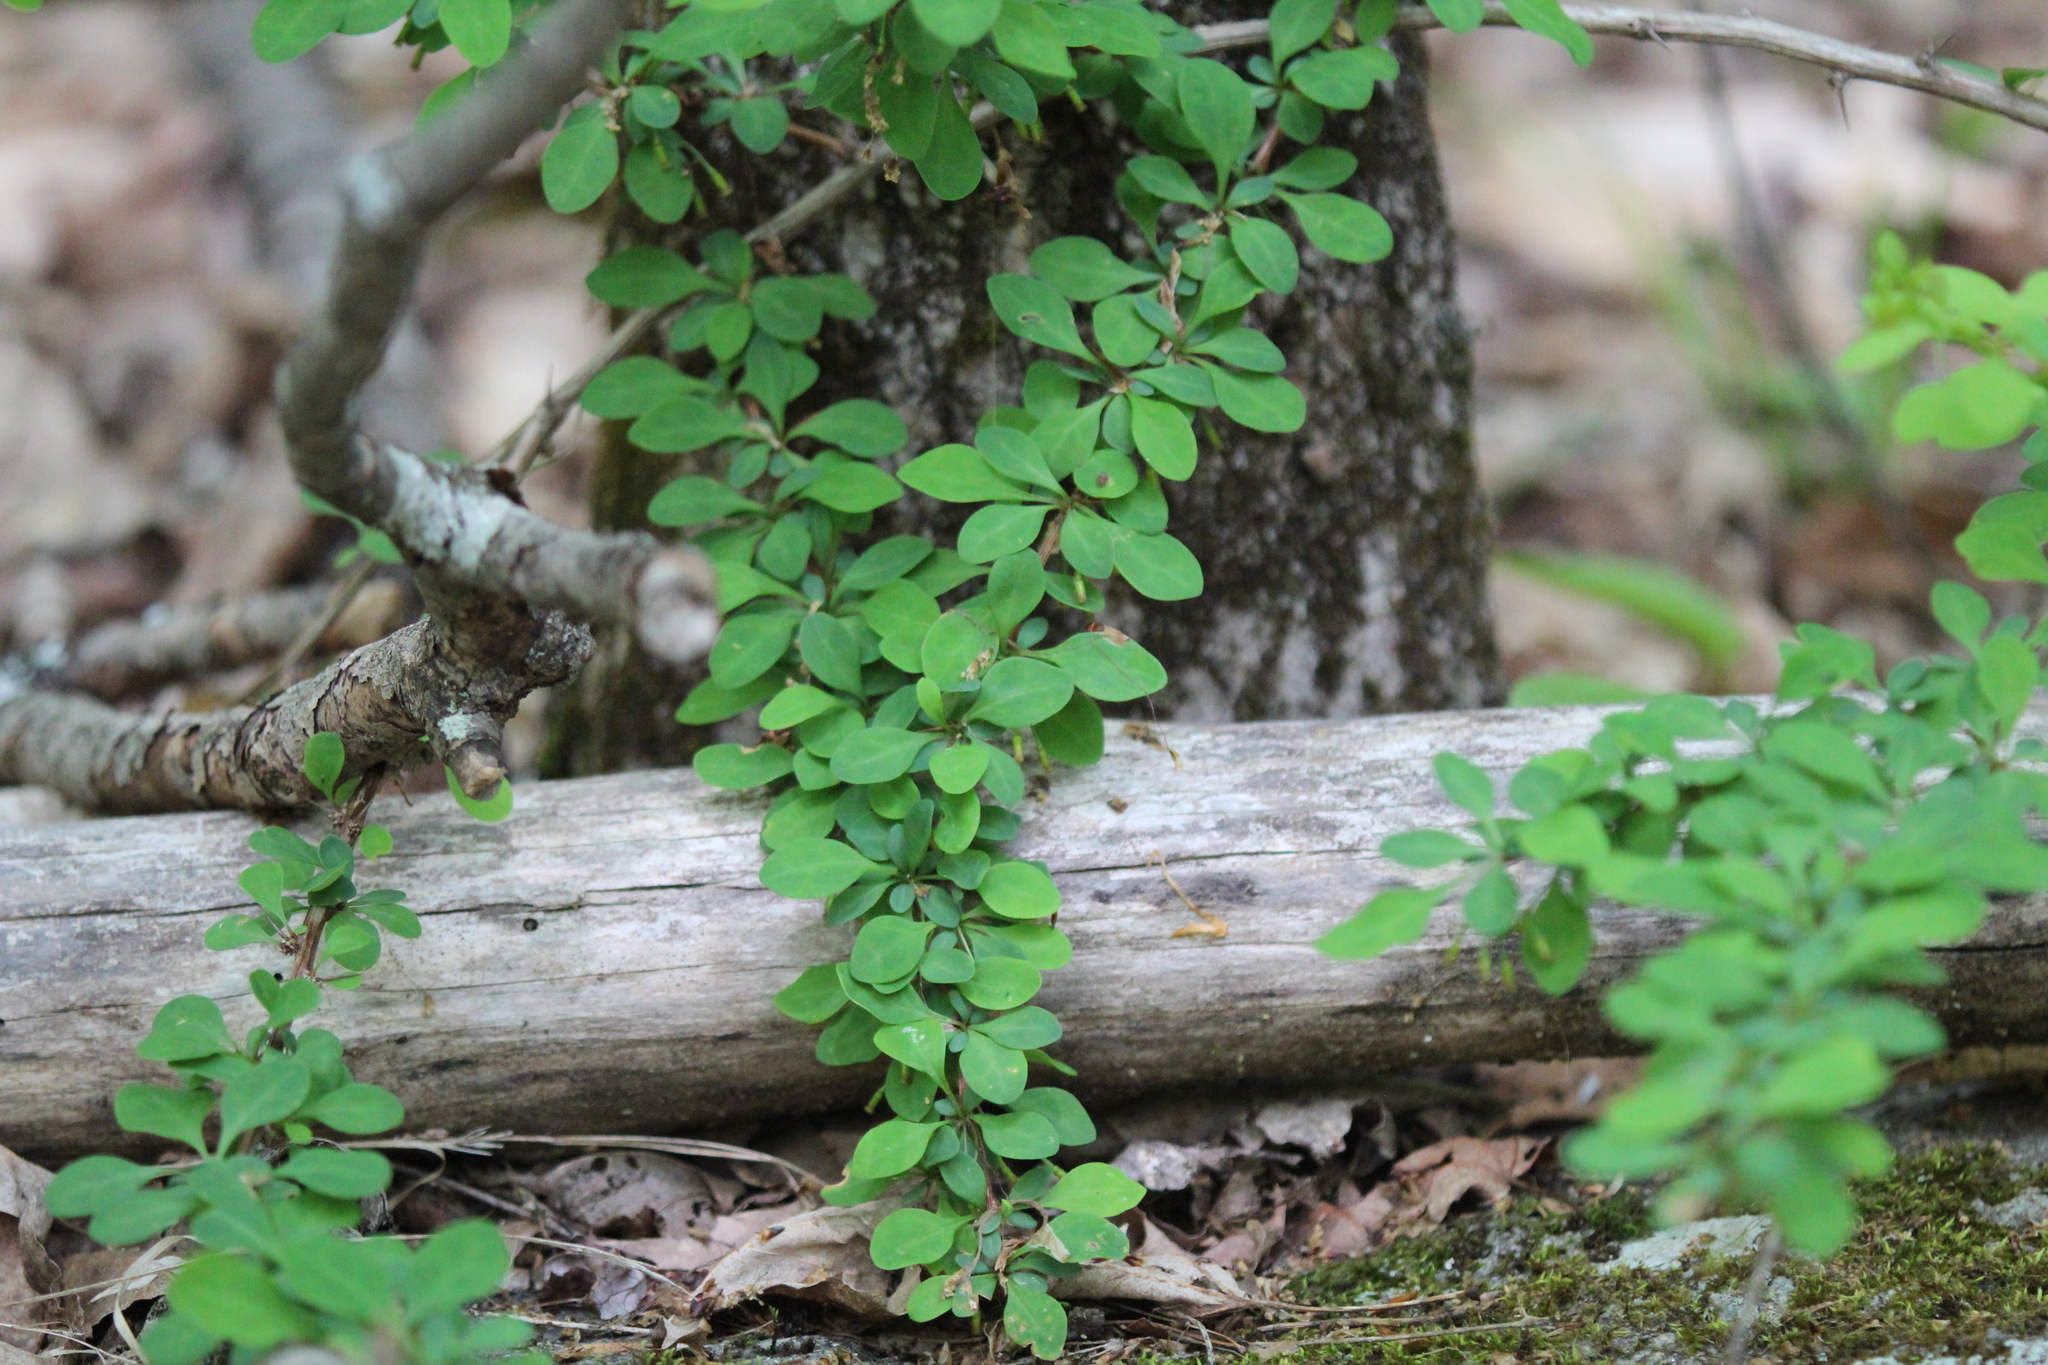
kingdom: Plantae
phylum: Tracheophyta
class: Magnoliopsida
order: Ranunculales
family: Berberidaceae
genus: Berberis
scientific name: Berberis thunbergii
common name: Japanese barberry
